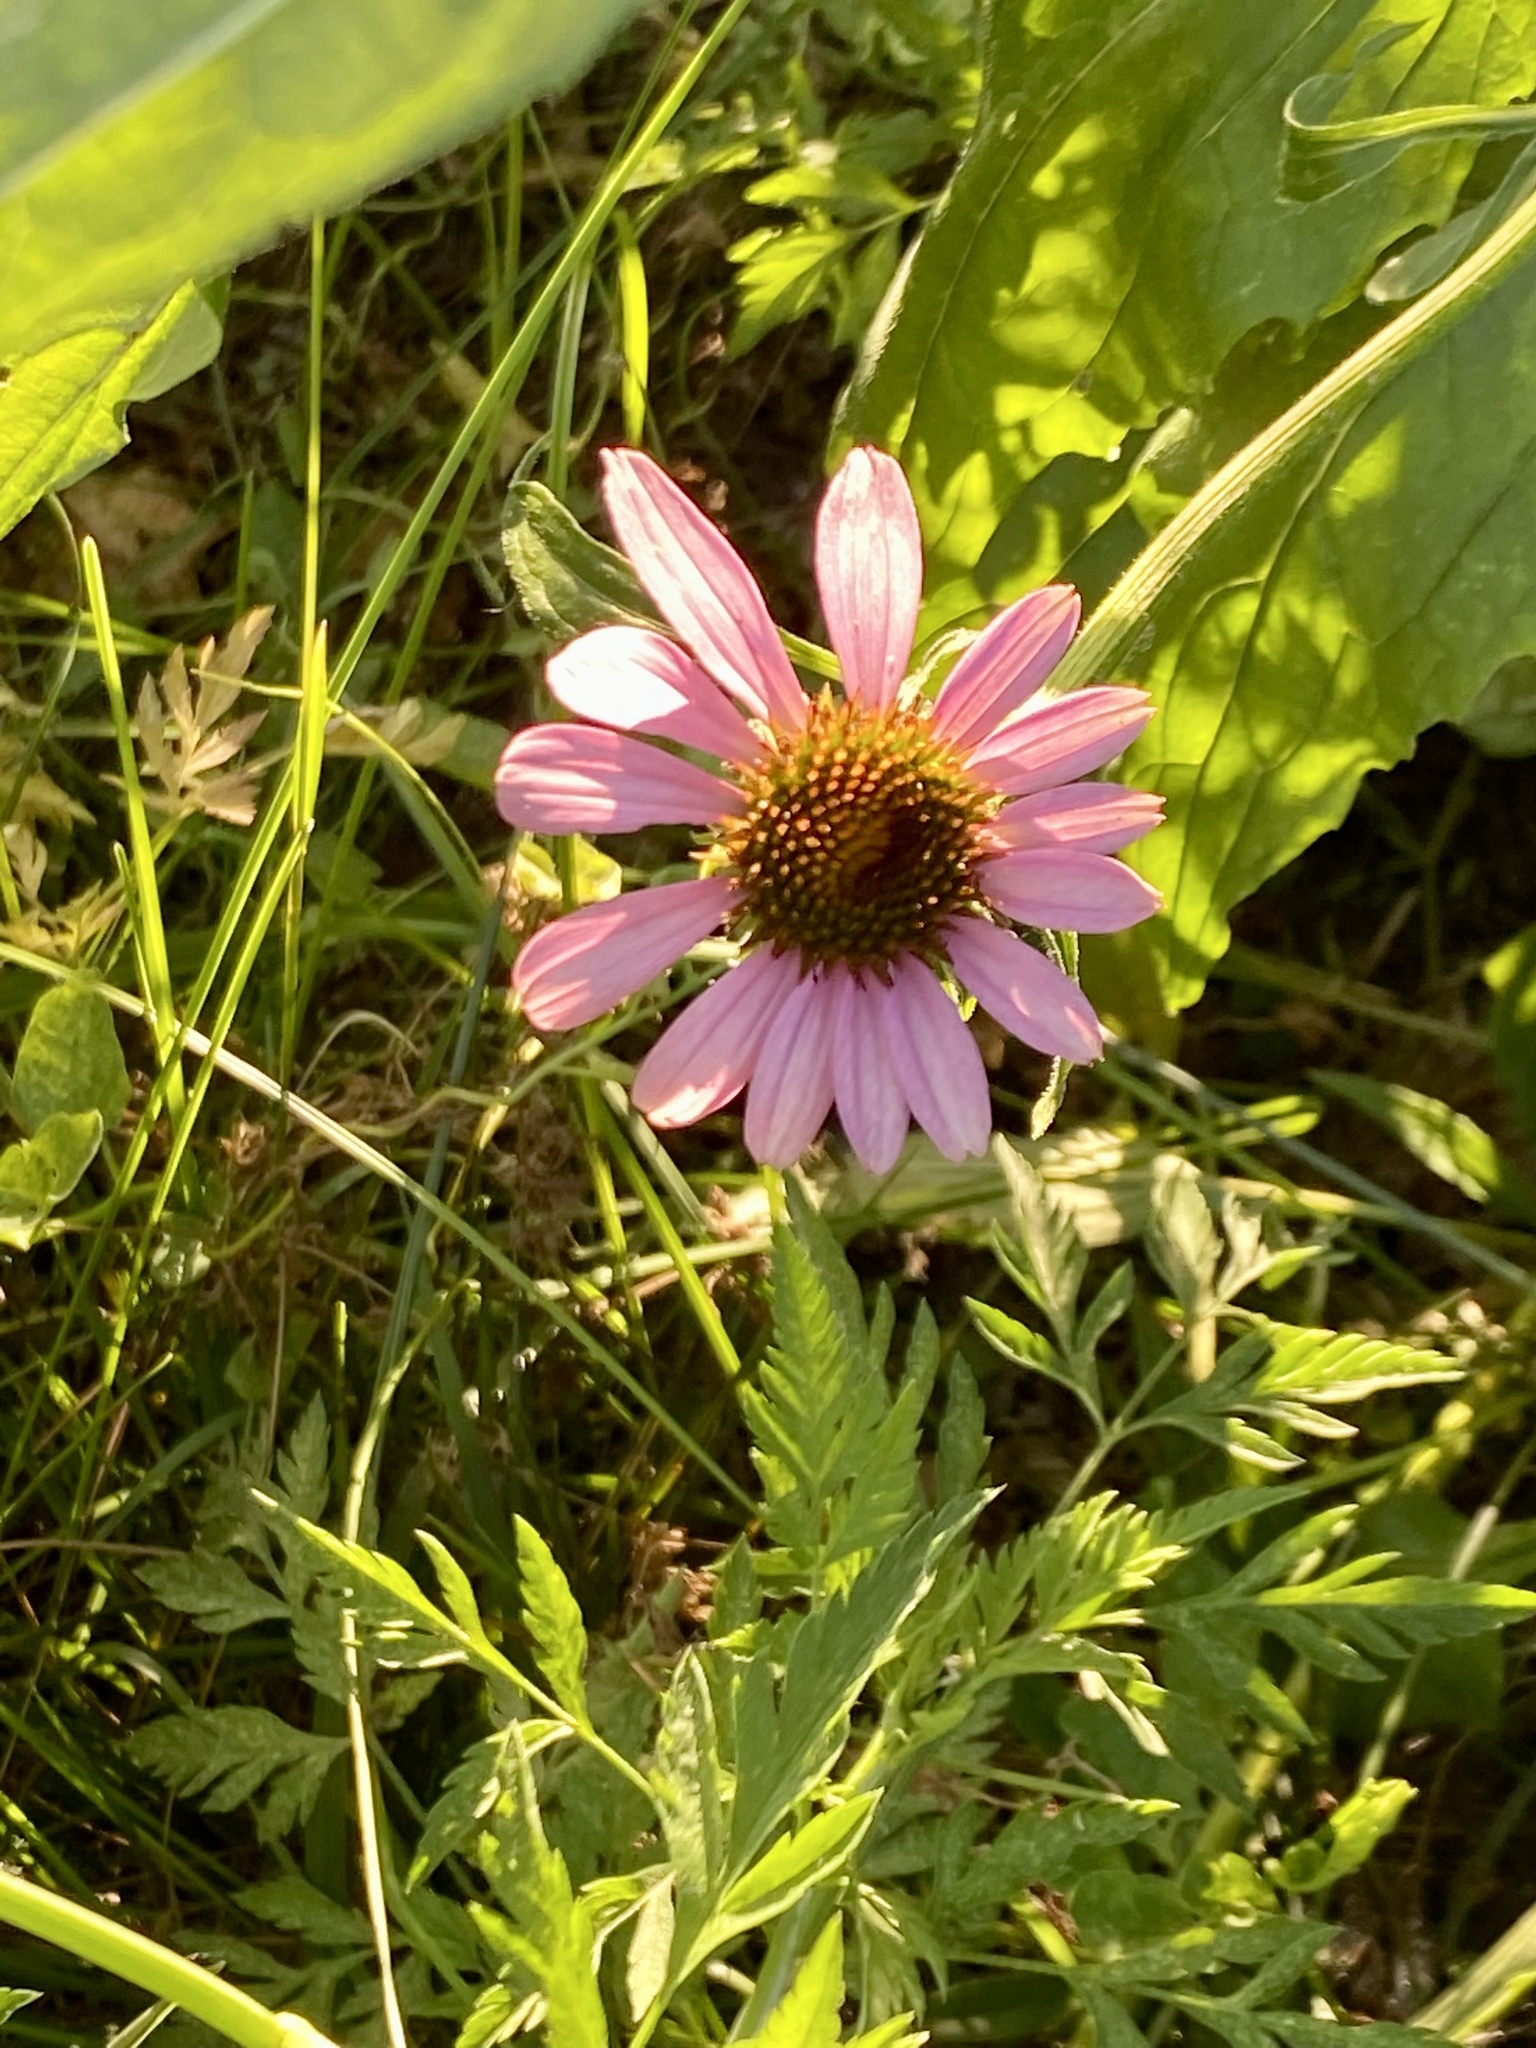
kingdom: Plantae
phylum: Tracheophyta
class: Magnoliopsida
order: Asterales
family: Asteraceae
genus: Echinacea
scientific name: Echinacea purpurea
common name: Broad-leaved purple coneflower
